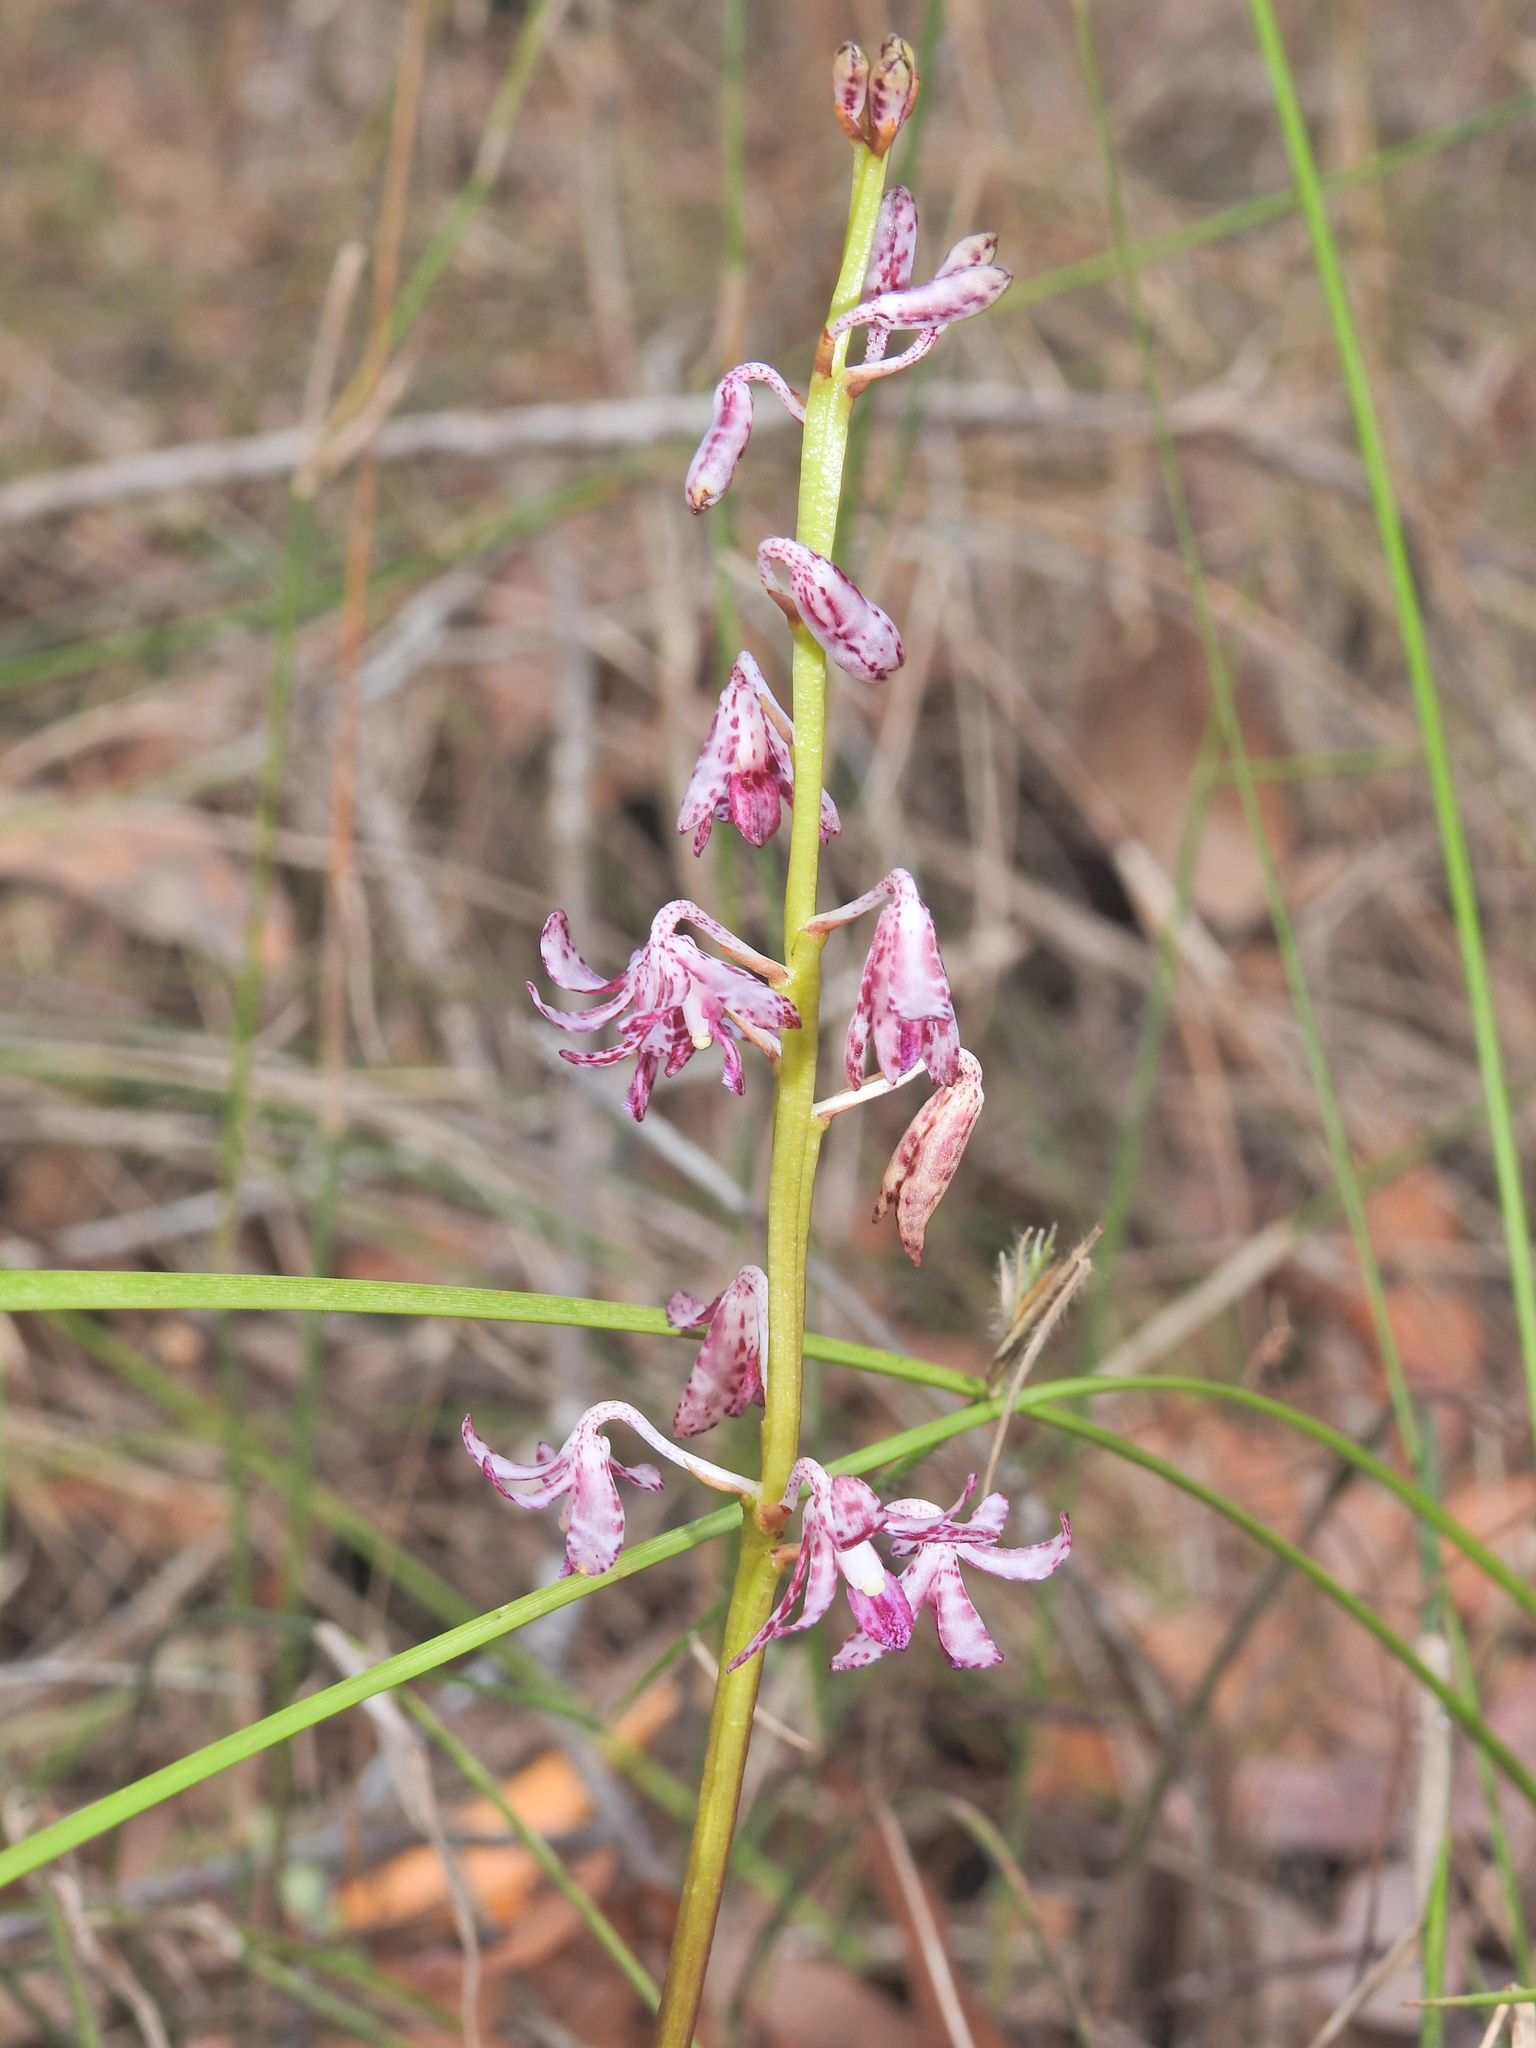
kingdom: Plantae
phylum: Tracheophyta
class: Liliopsida
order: Asparagales
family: Orchidaceae
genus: Dipodium
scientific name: Dipodium variegatum
